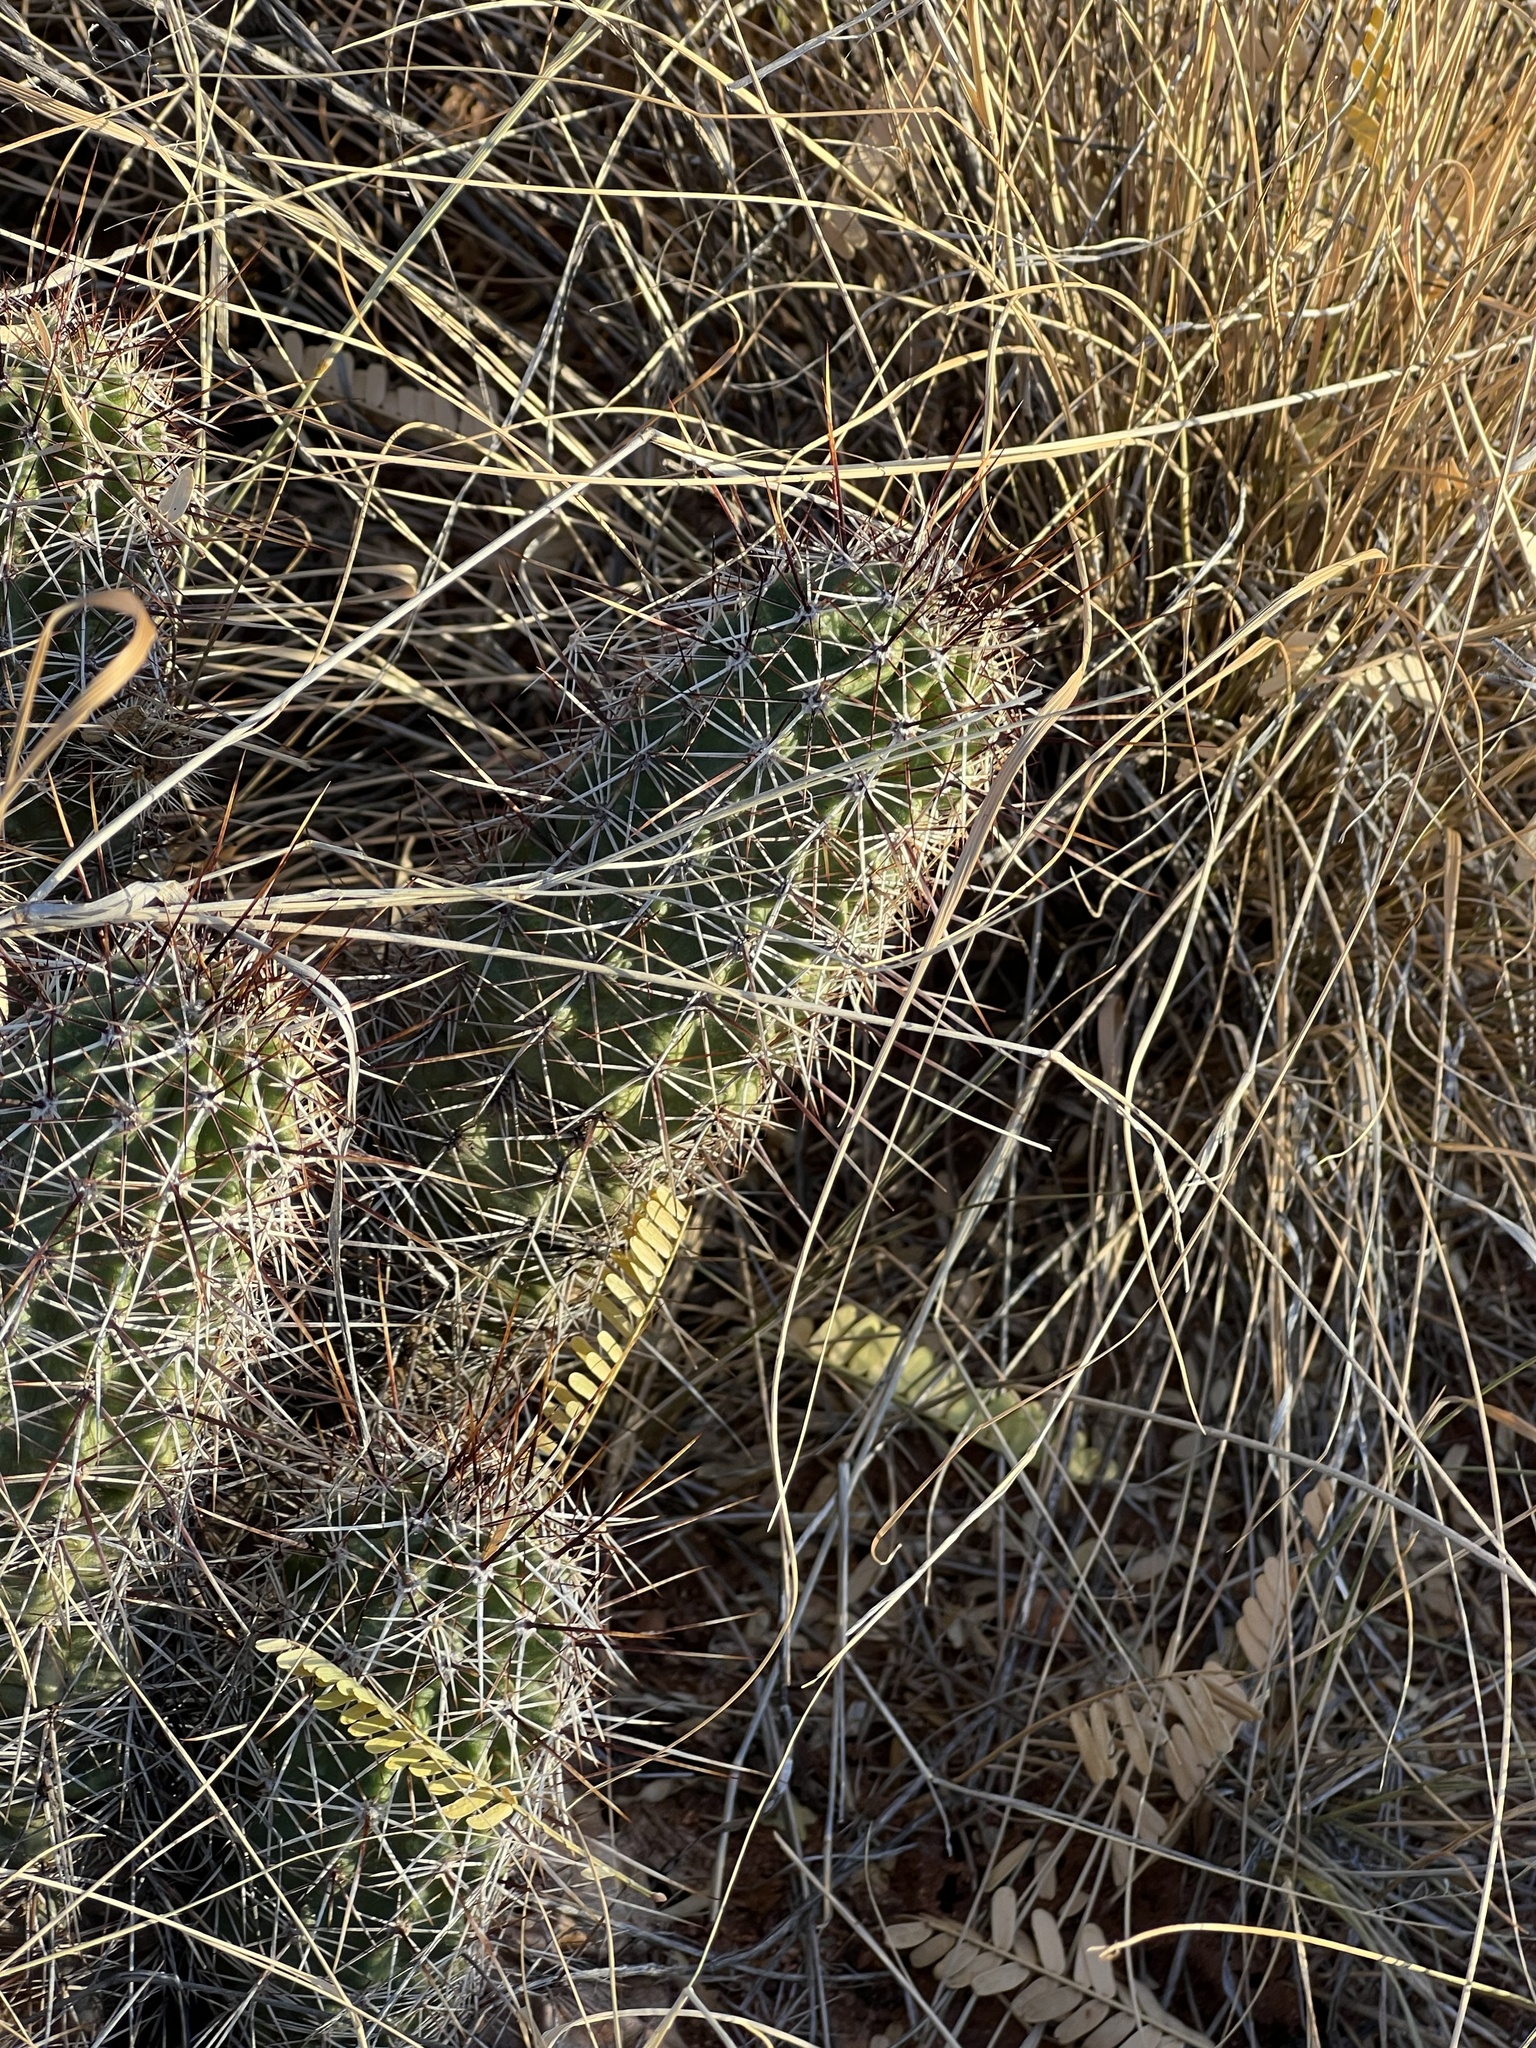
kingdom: Plantae
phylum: Tracheophyta
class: Magnoliopsida
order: Caryophyllales
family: Cactaceae
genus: Echinocereus
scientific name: Echinocereus fendleri
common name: Fendler's hedgehog cactus
